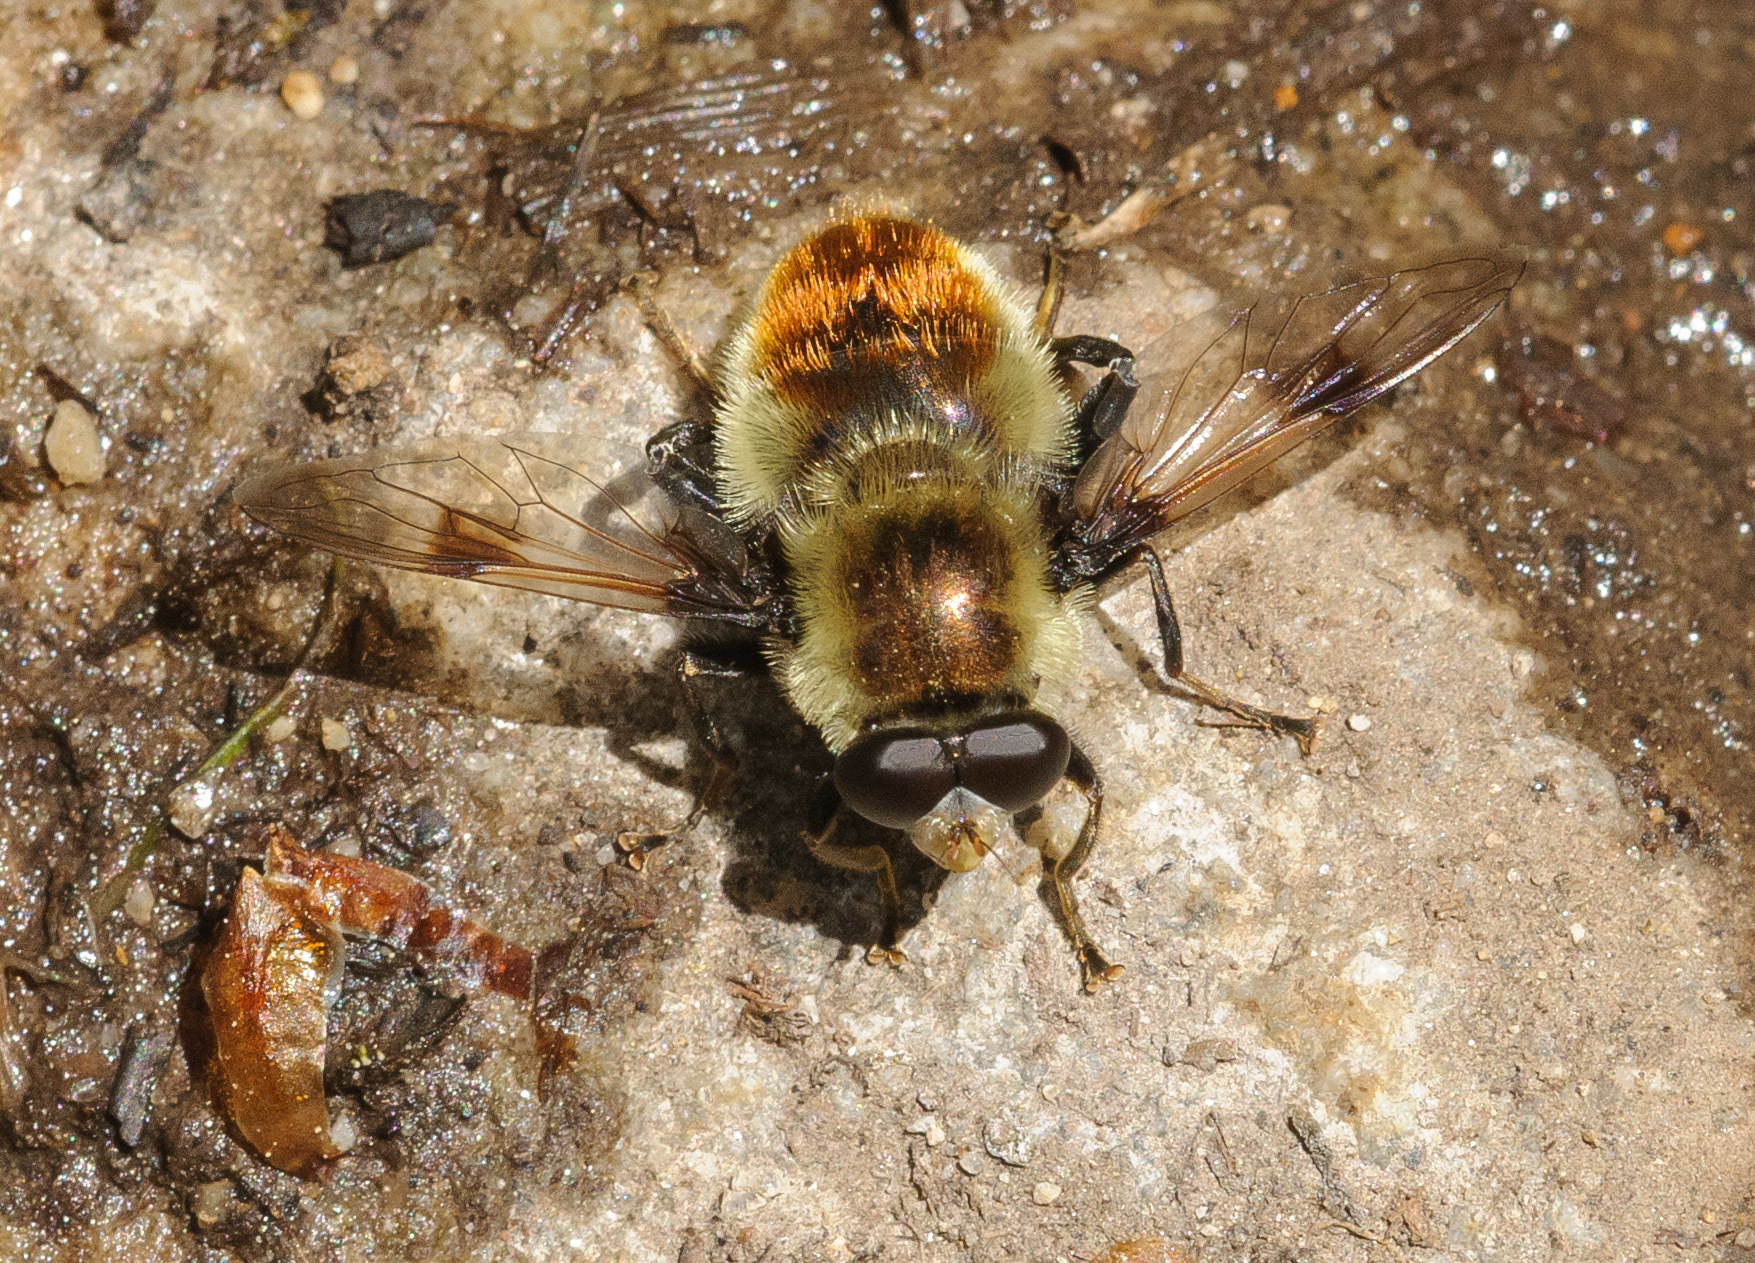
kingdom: Animalia
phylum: Arthropoda
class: Insecta
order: Diptera
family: Syrphidae
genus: Sericomyia
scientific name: Sericomyia flagrans
